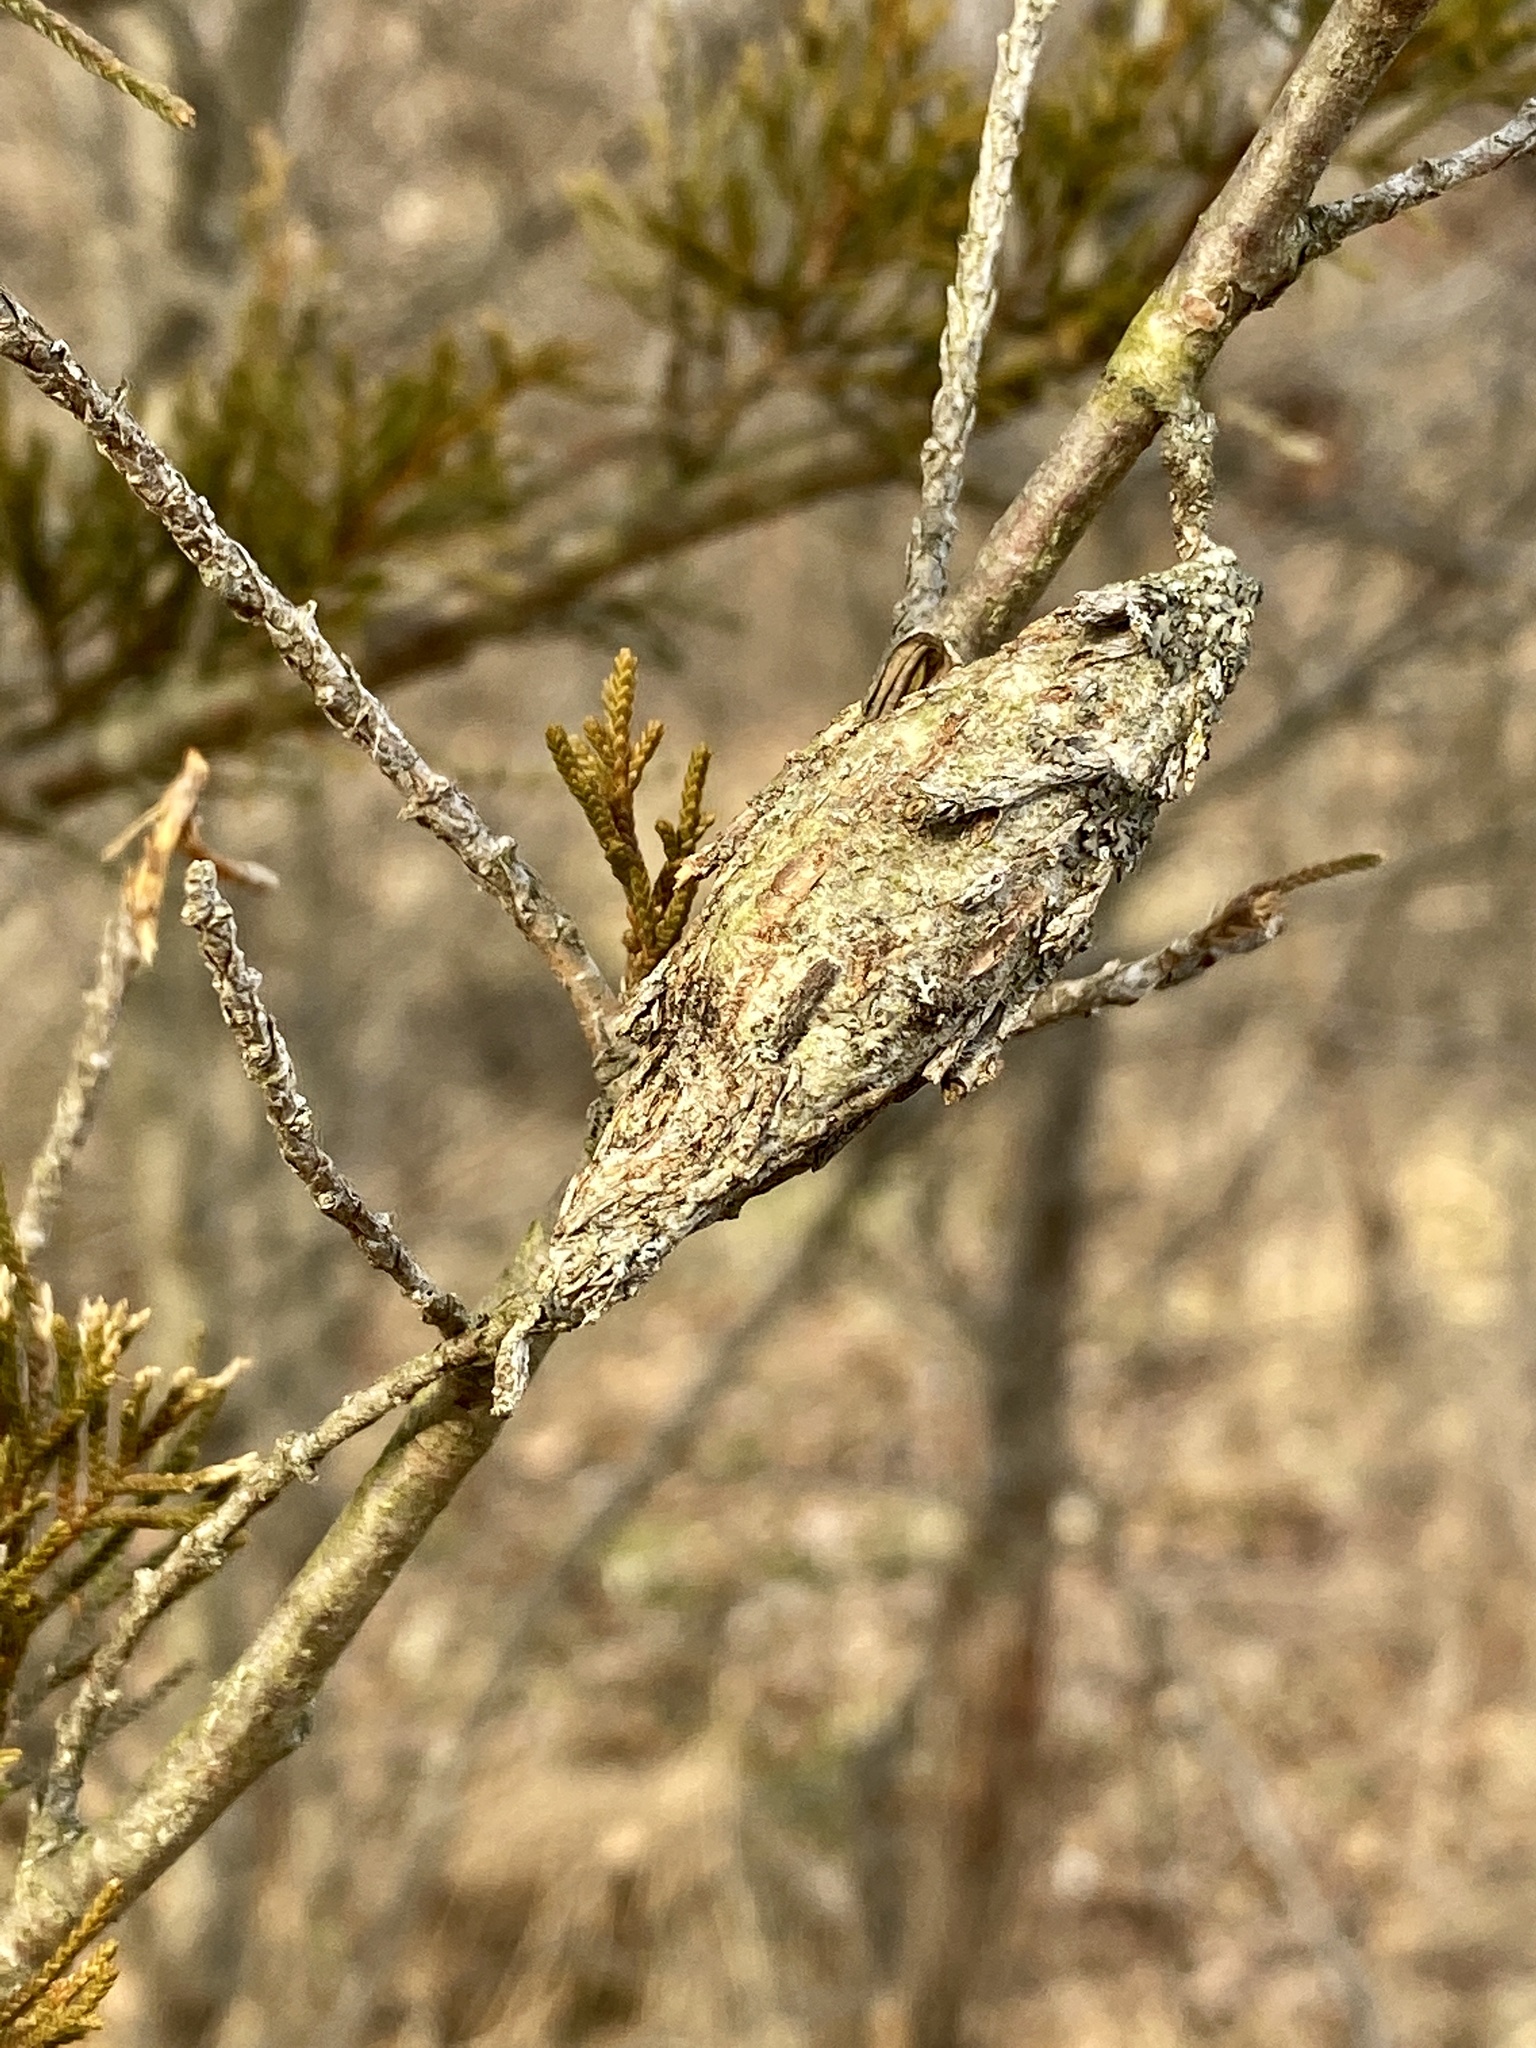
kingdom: Animalia
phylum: Arthropoda
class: Insecta
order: Lepidoptera
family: Psychidae
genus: Thyridopteryx
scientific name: Thyridopteryx ephemeraeformis
